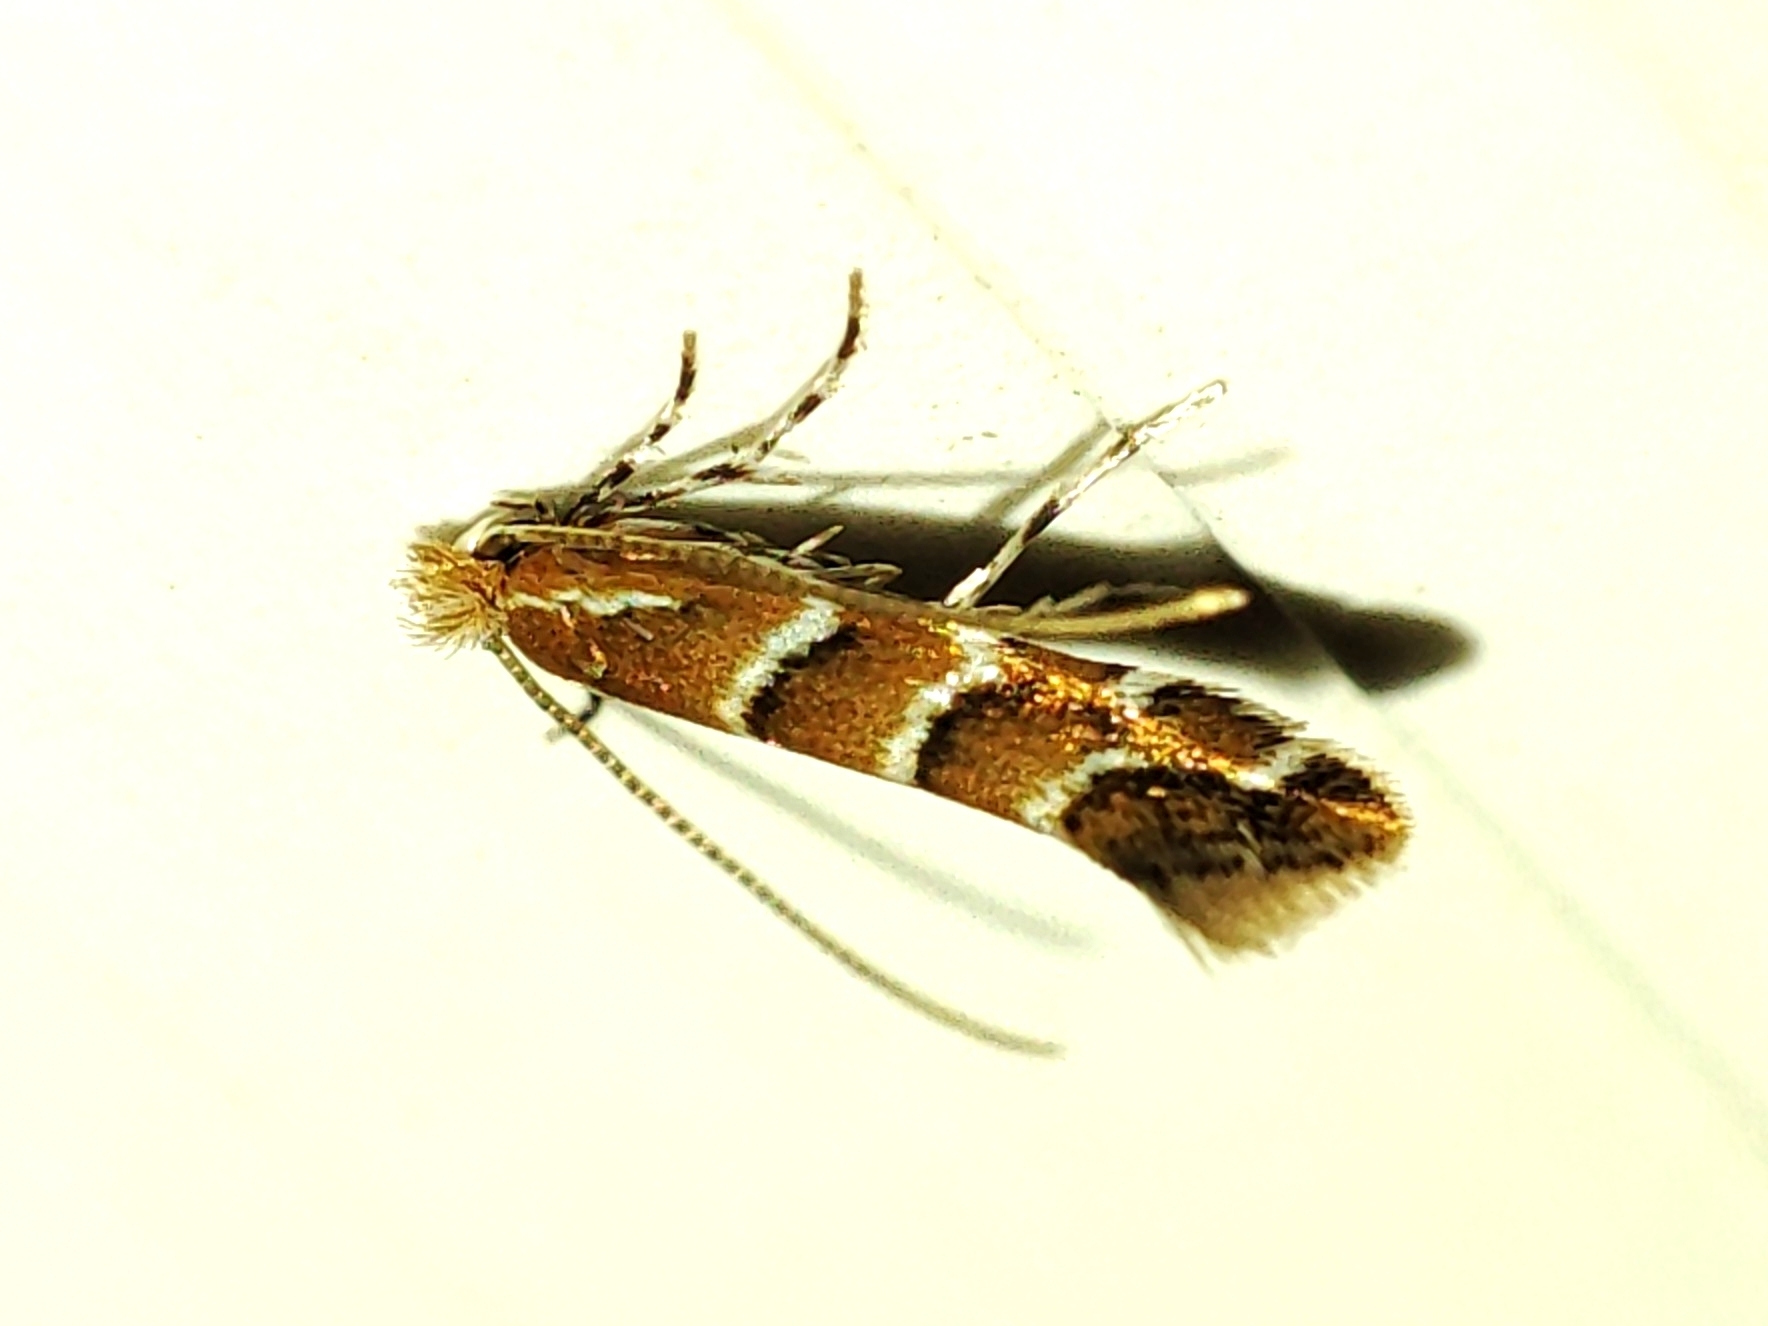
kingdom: Animalia
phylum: Arthropoda
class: Insecta
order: Lepidoptera
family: Gracillariidae
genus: Cameraria
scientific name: Cameraria ohridella
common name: Horse-chestnut leaf-miner
